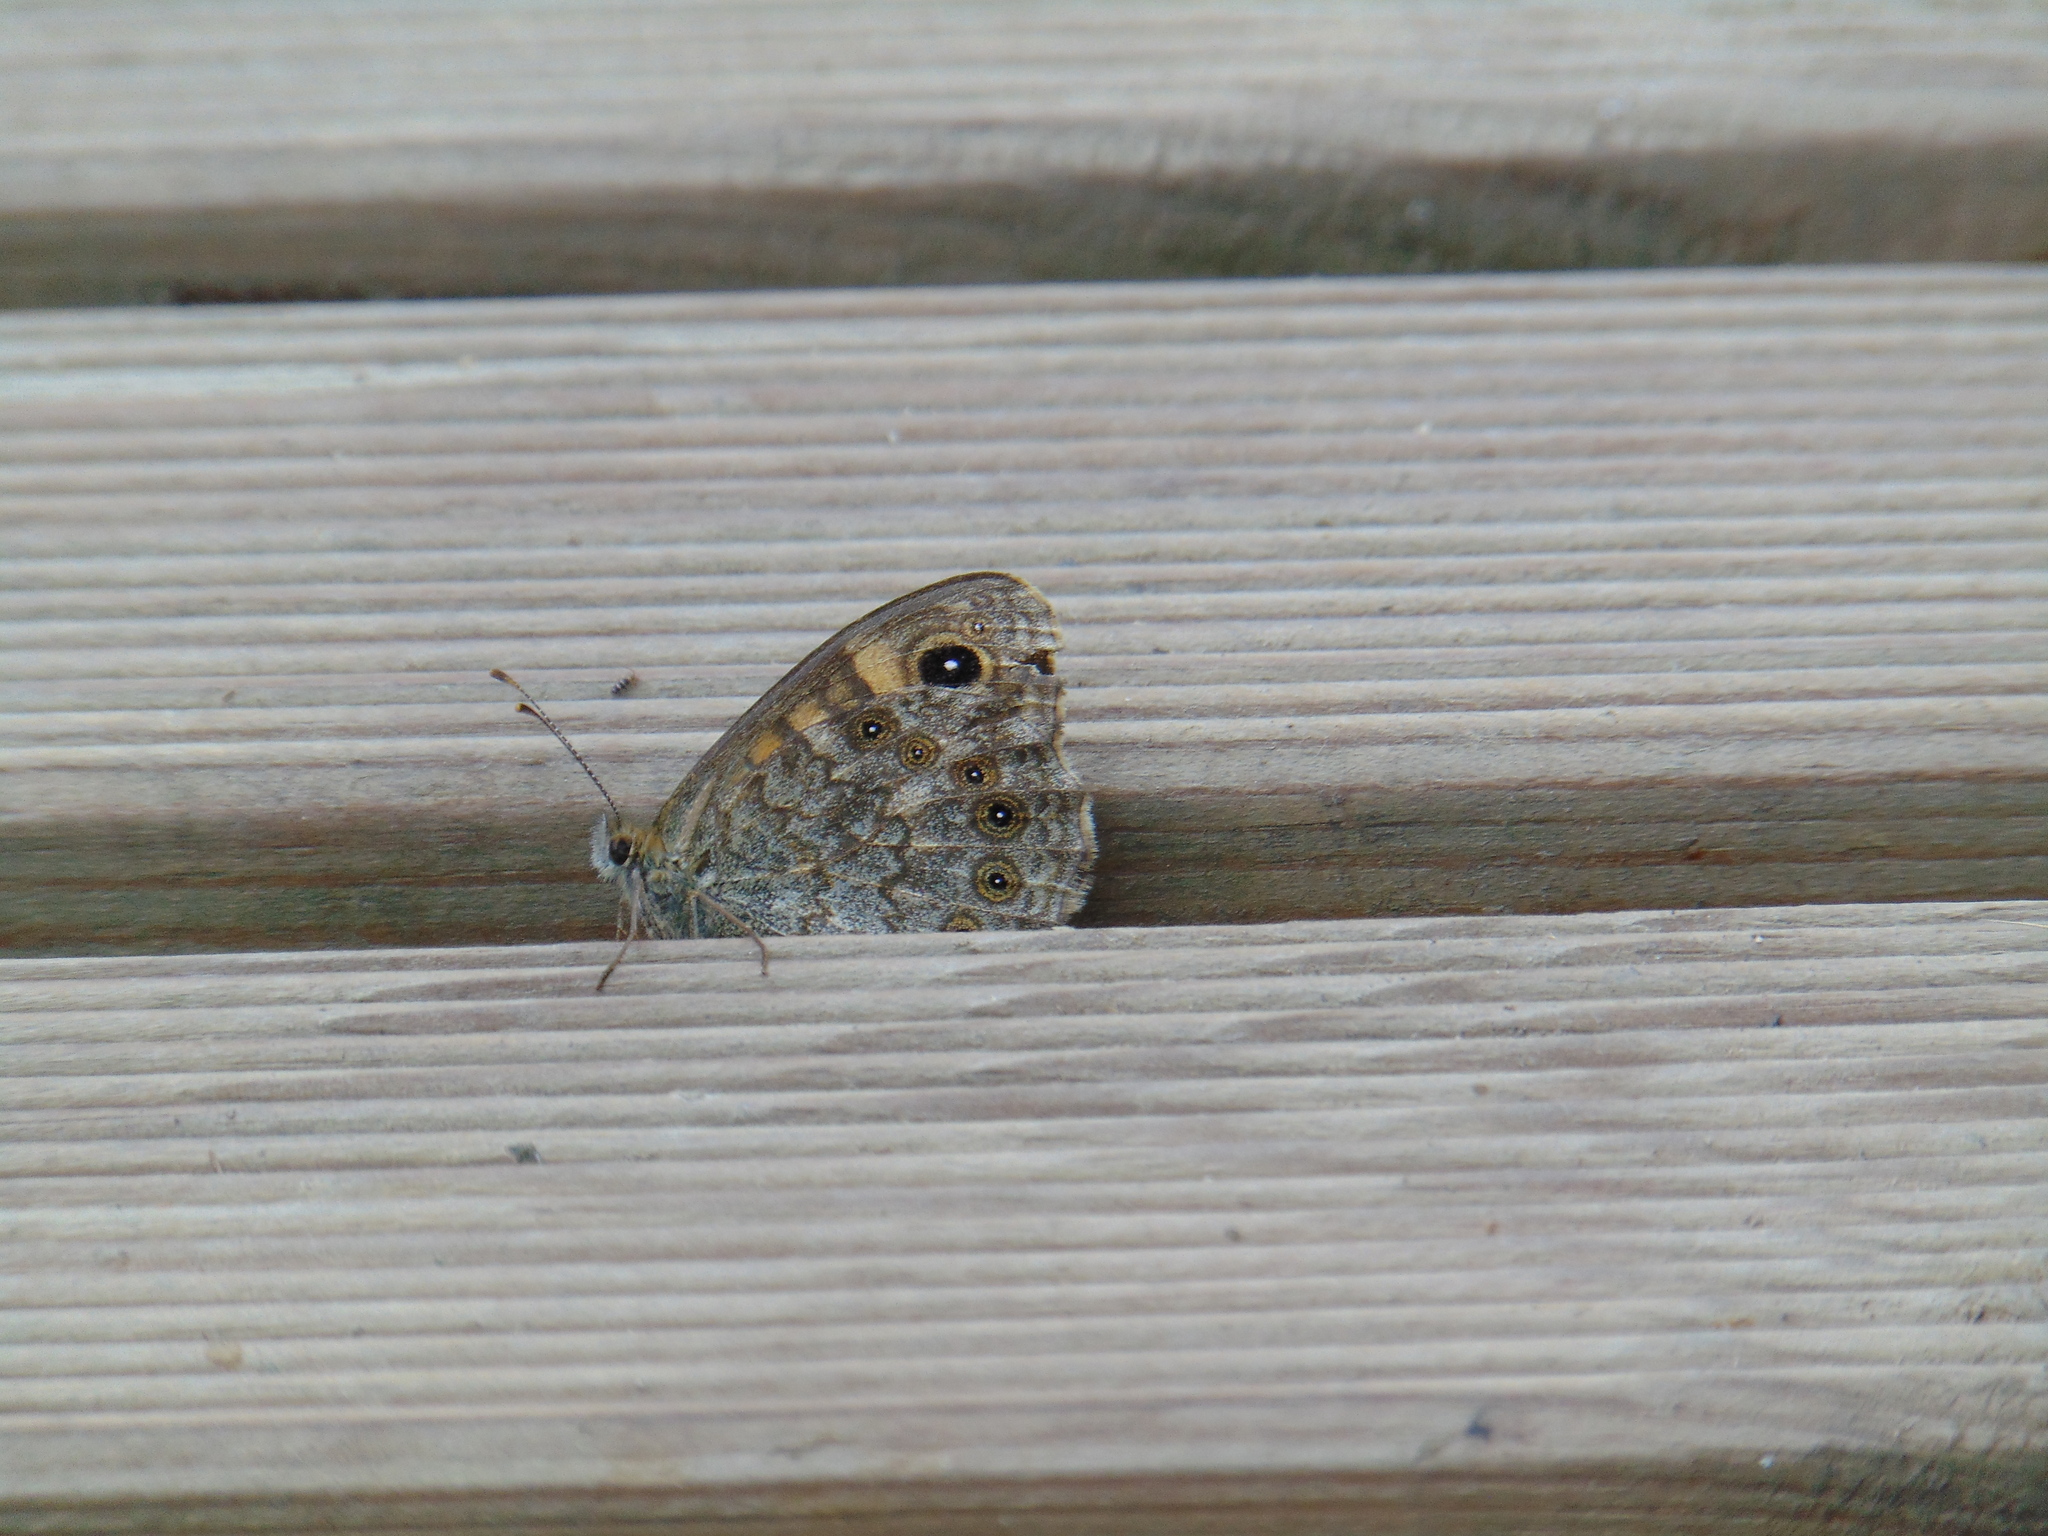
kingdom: Animalia
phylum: Arthropoda
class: Insecta
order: Lepidoptera
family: Nymphalidae
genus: Pararge
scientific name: Pararge Lasiommata megera
